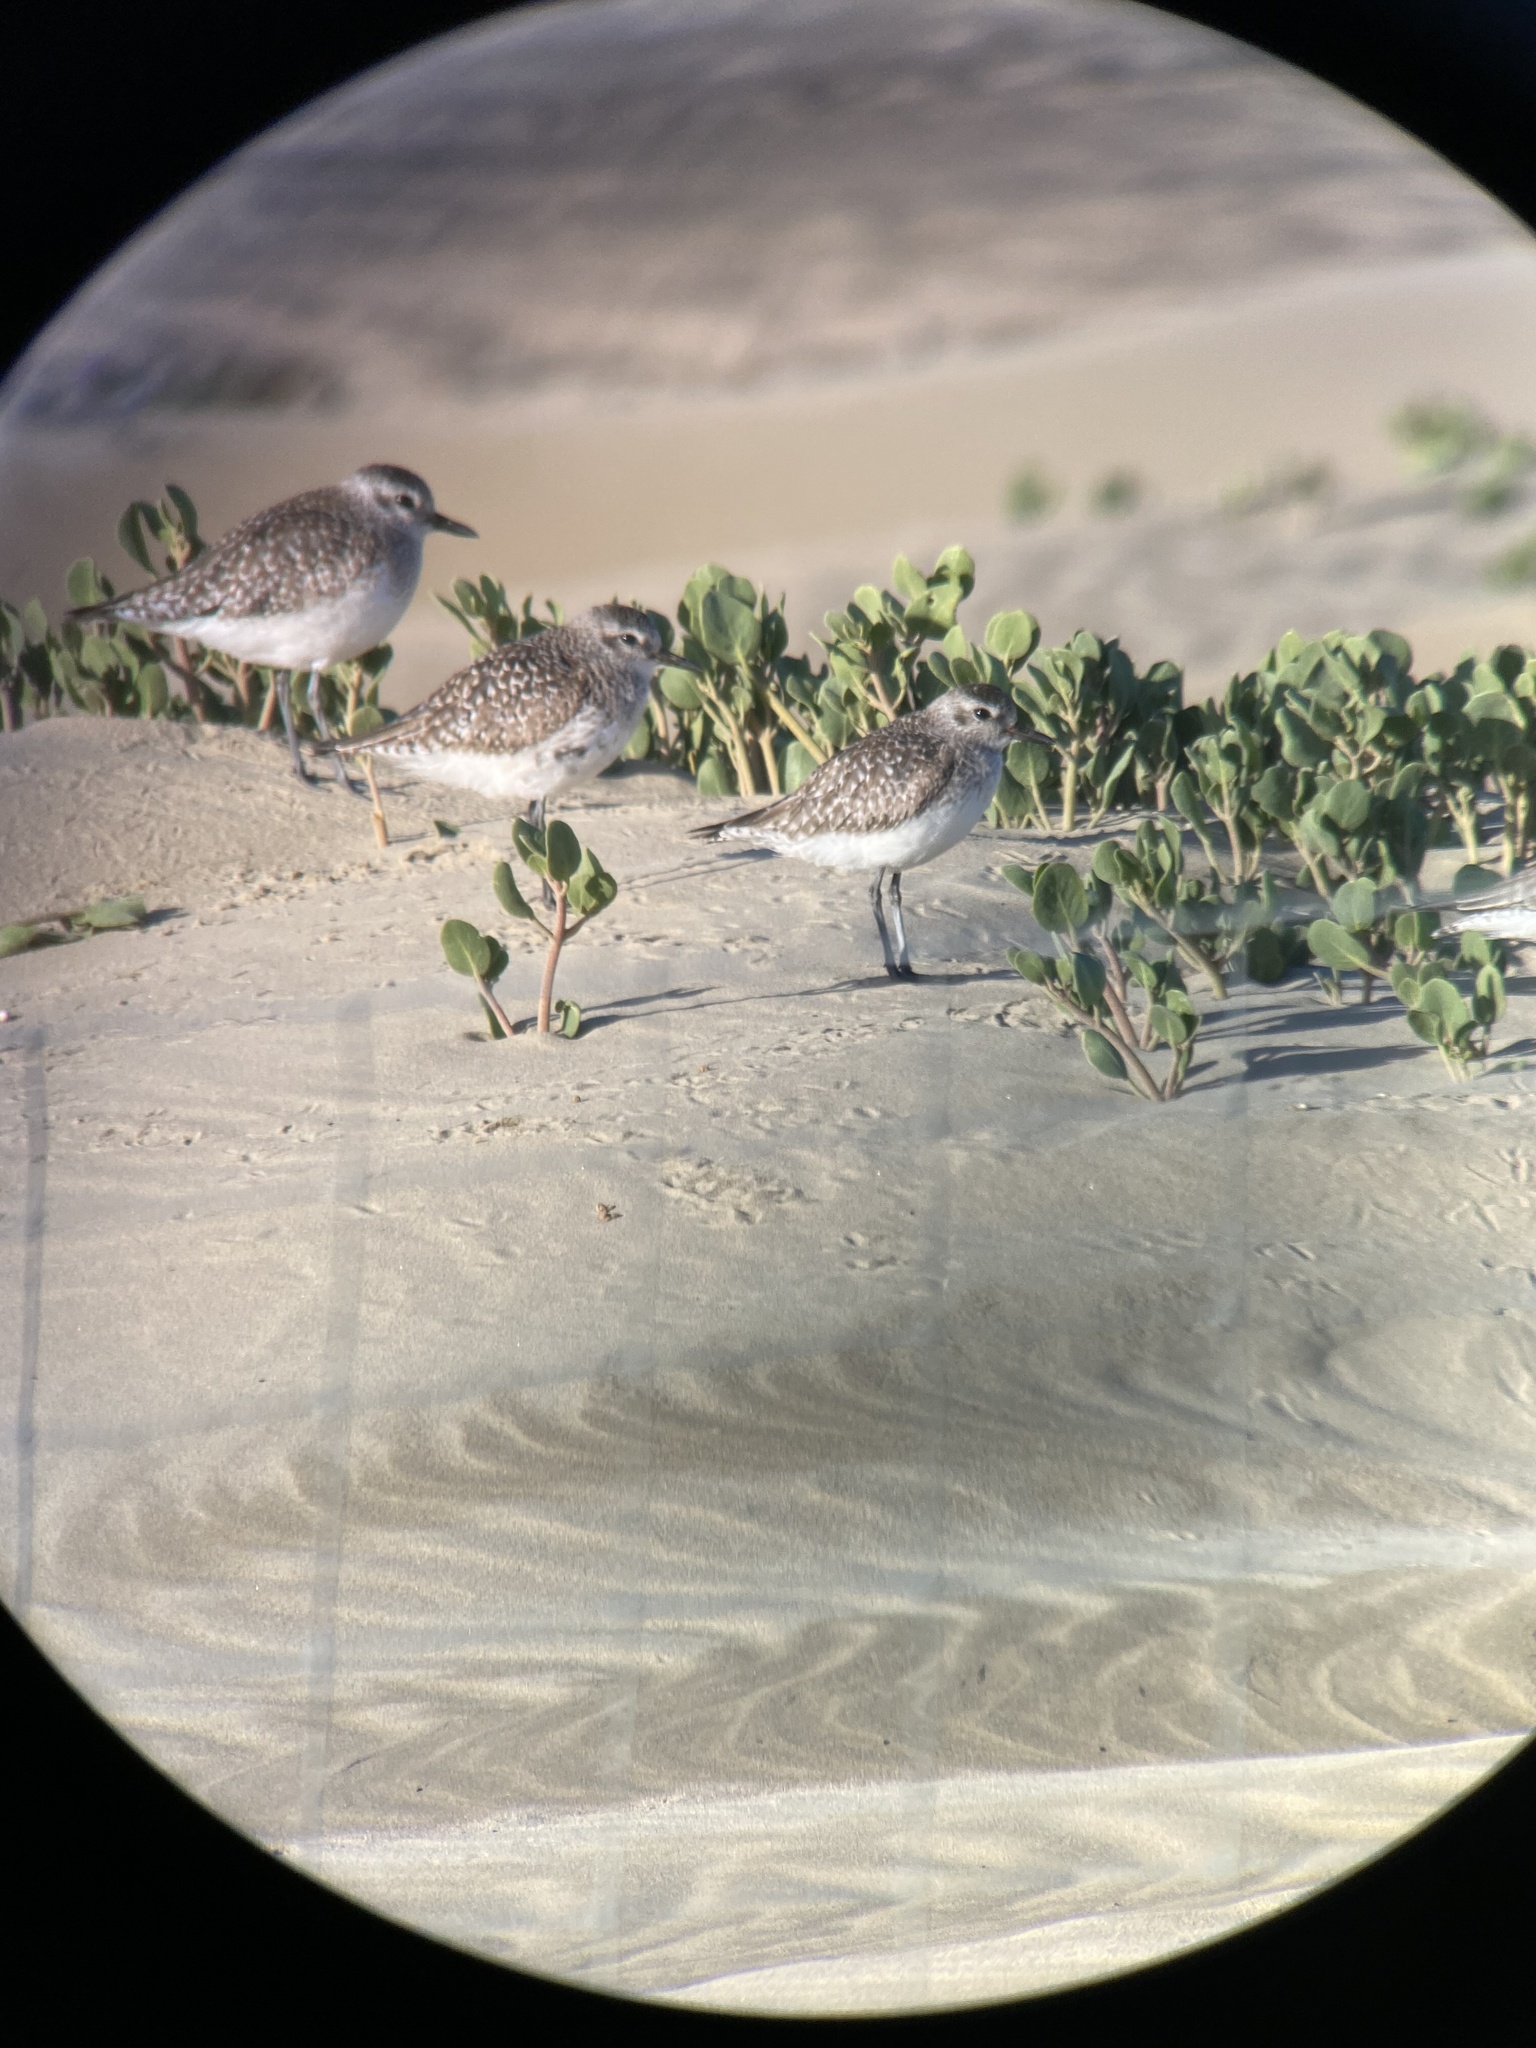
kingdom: Animalia
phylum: Chordata
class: Aves
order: Charadriiformes
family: Charadriidae
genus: Pluvialis
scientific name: Pluvialis squatarola
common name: Grey plover
